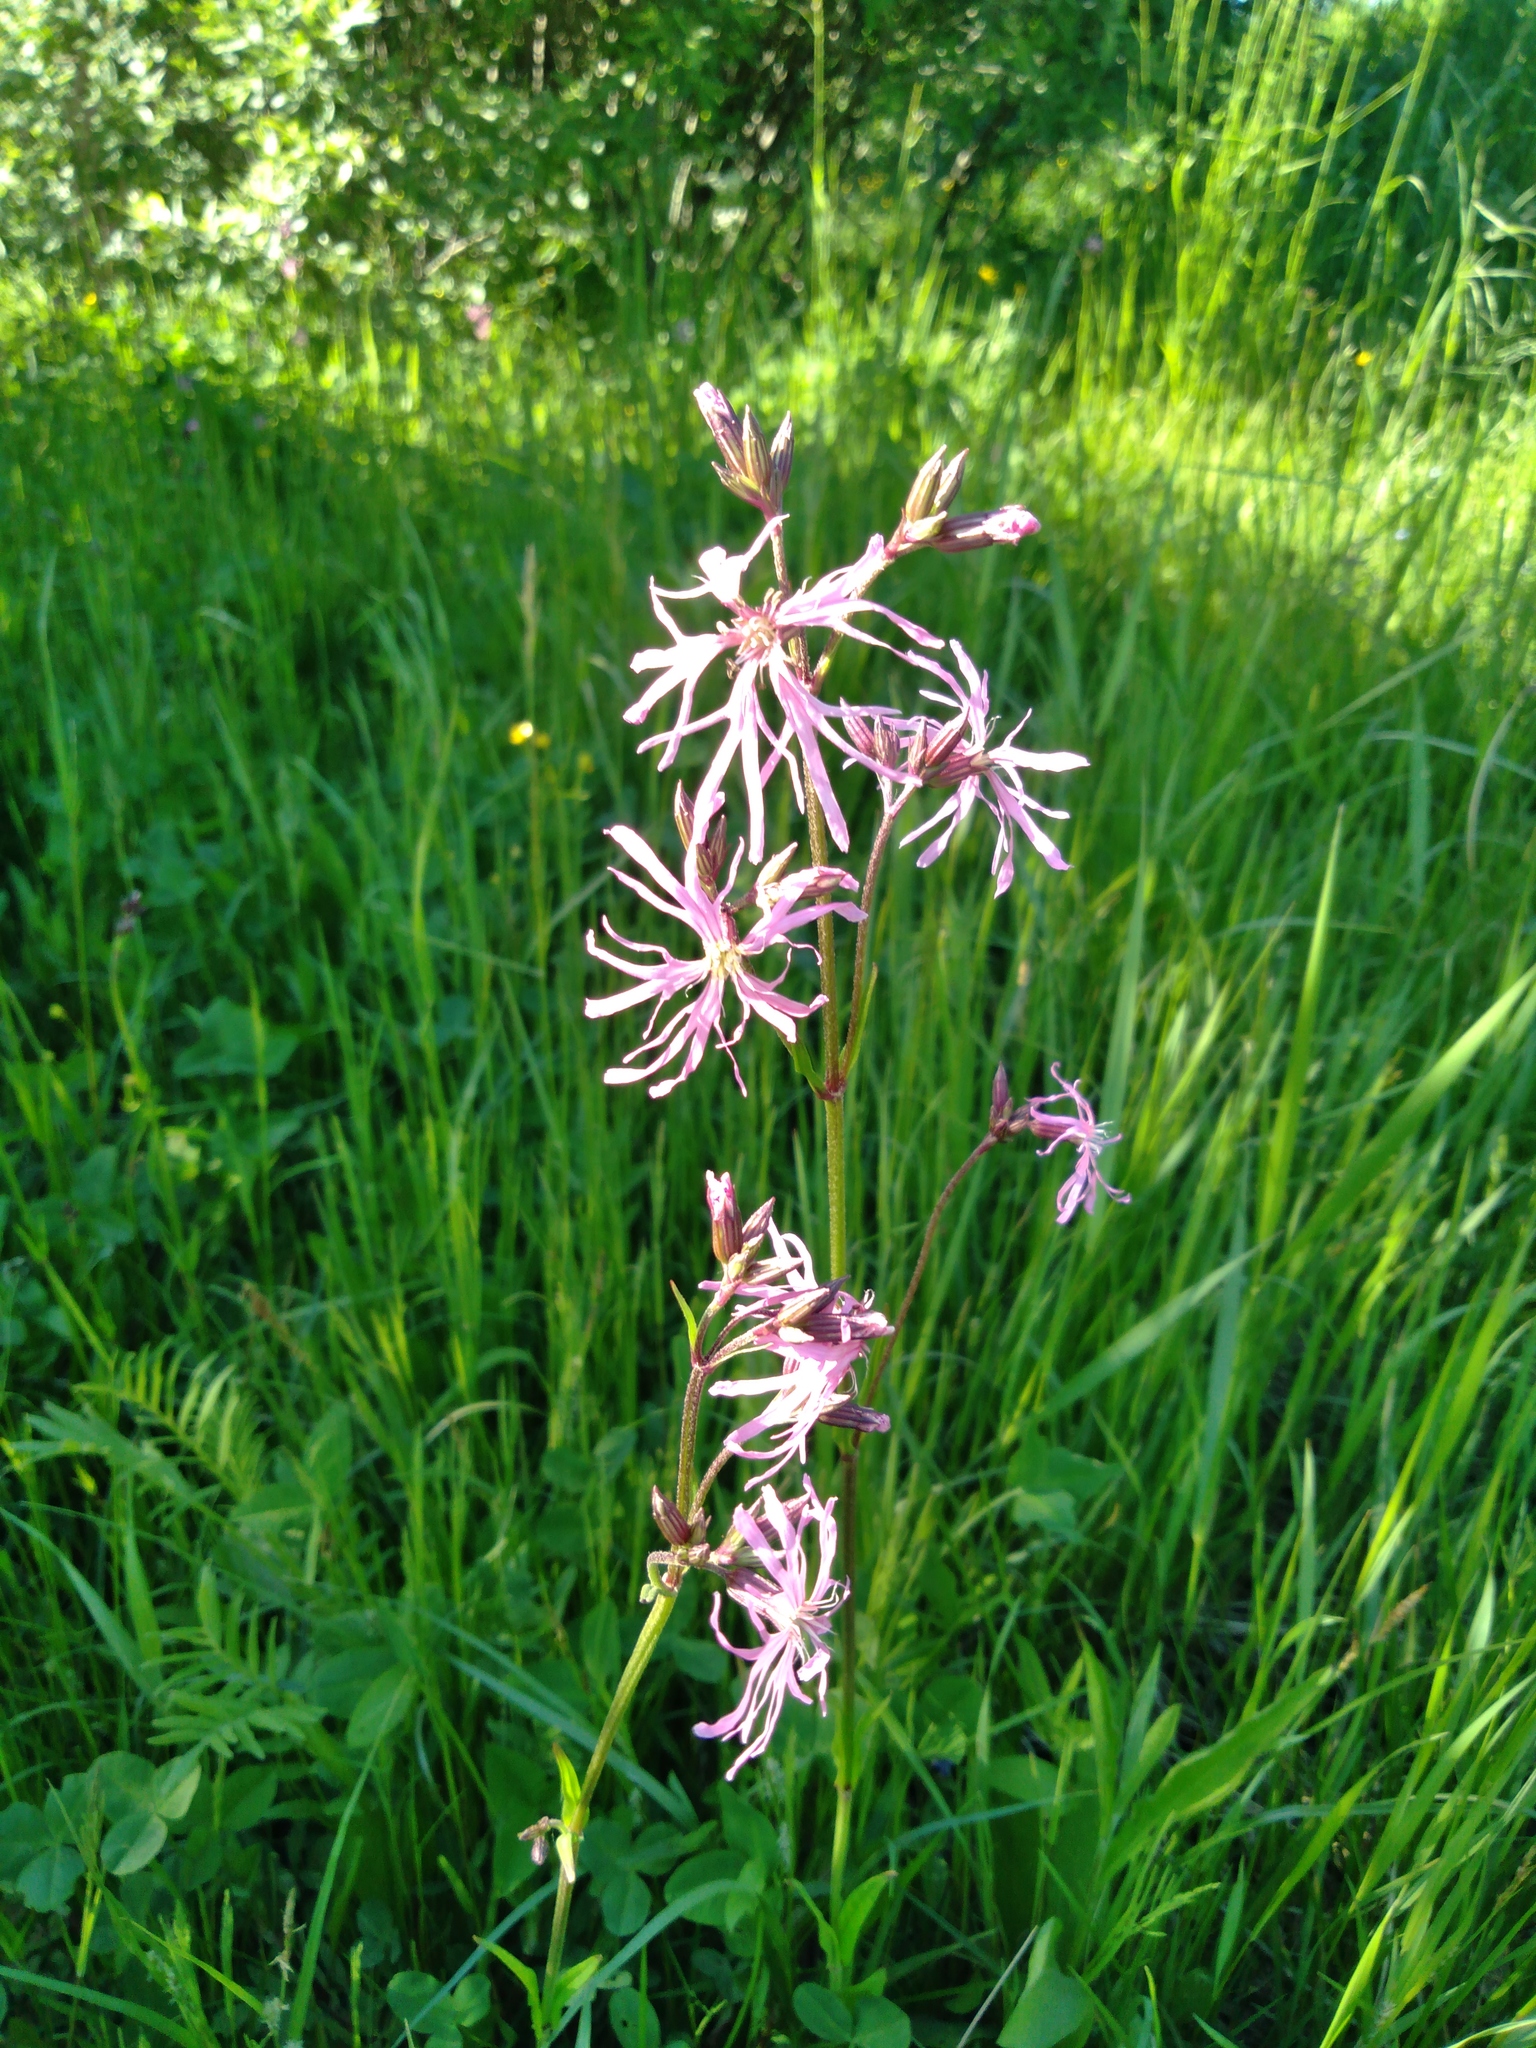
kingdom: Plantae
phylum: Tracheophyta
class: Magnoliopsida
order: Caryophyllales
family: Caryophyllaceae
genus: Silene
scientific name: Silene flos-cuculi
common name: Ragged-robin
